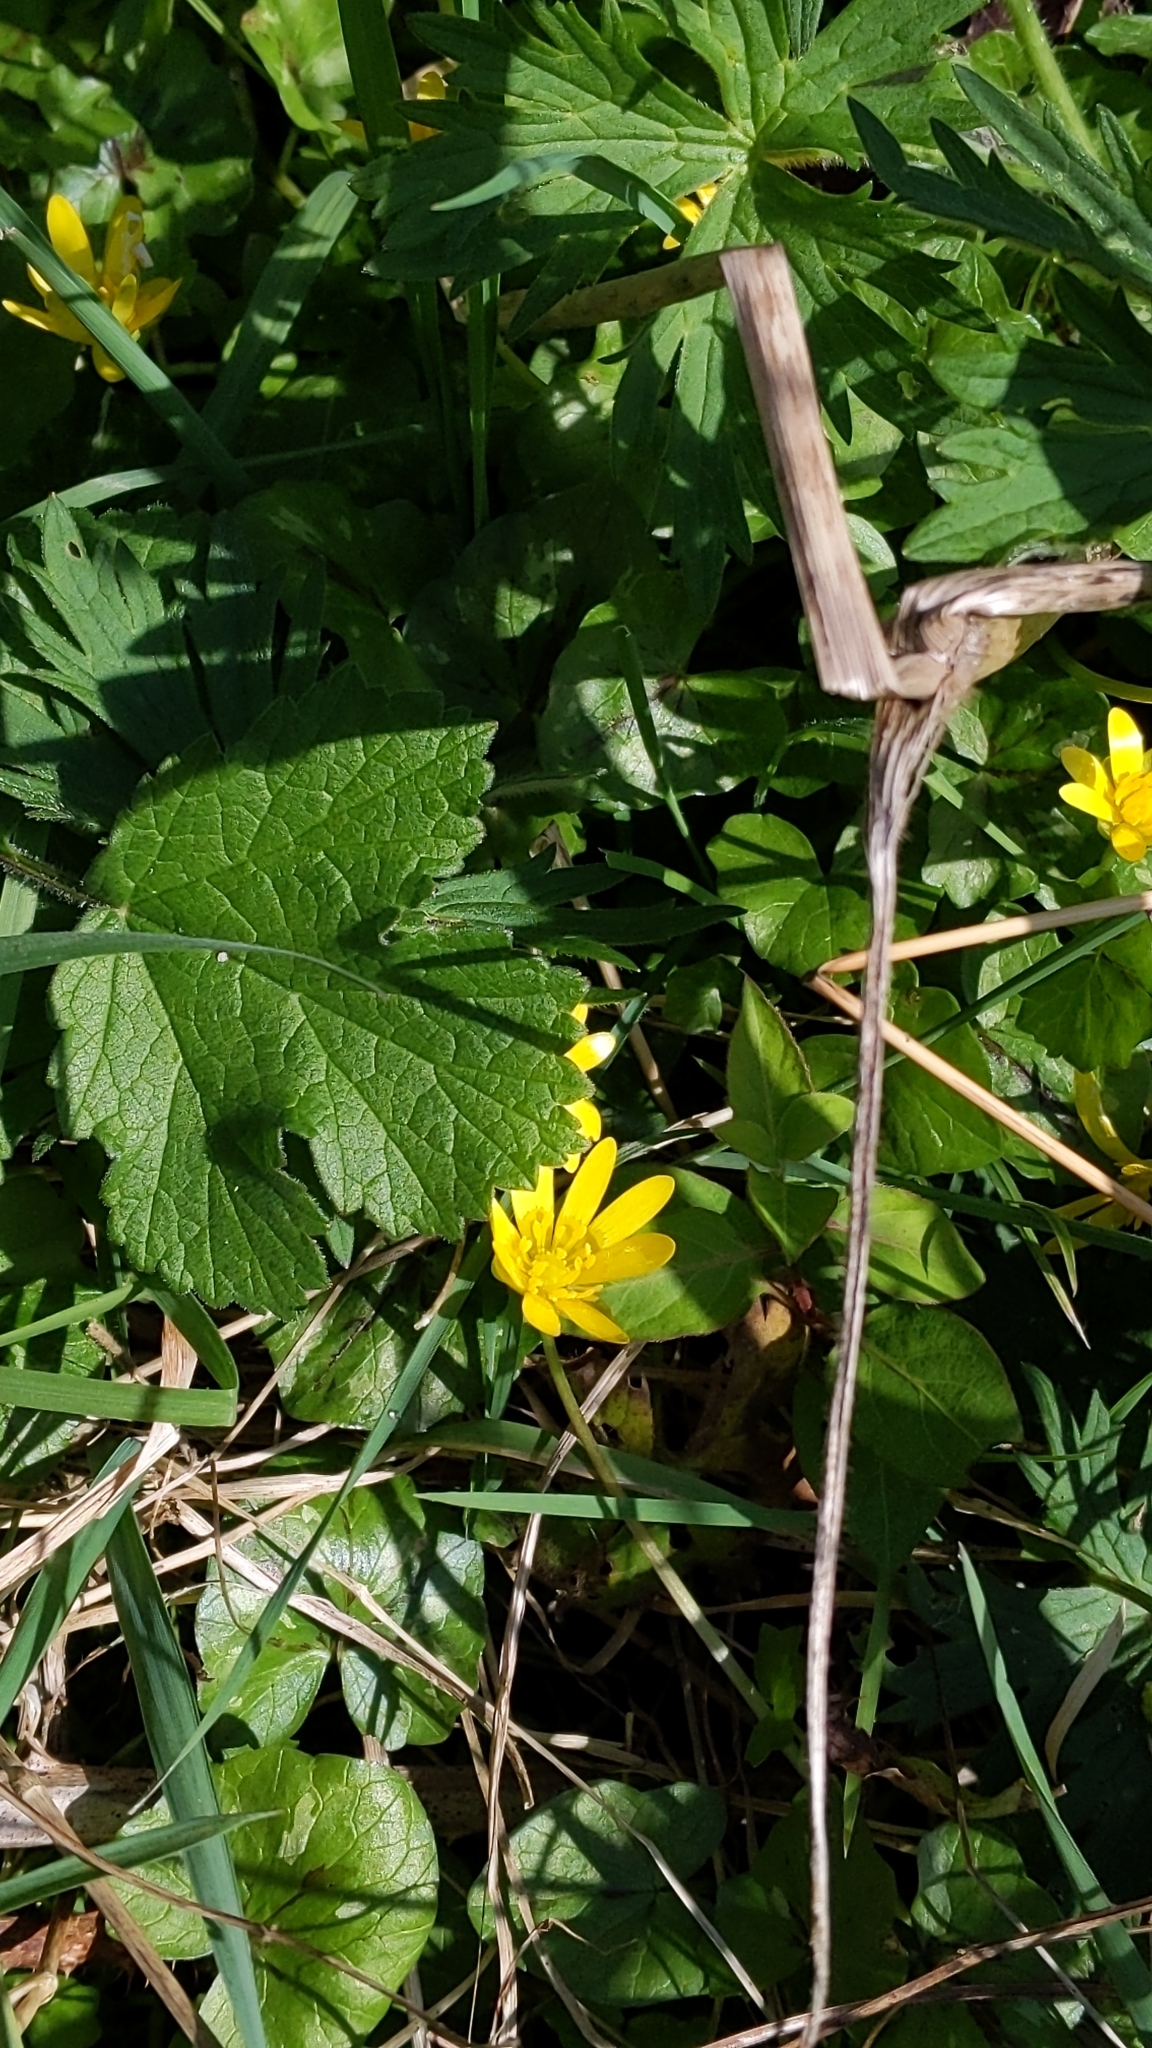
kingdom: Plantae
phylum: Tracheophyta
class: Magnoliopsida
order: Ranunculales
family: Ranunculaceae
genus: Ficaria
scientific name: Ficaria verna
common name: Lesser celandine
